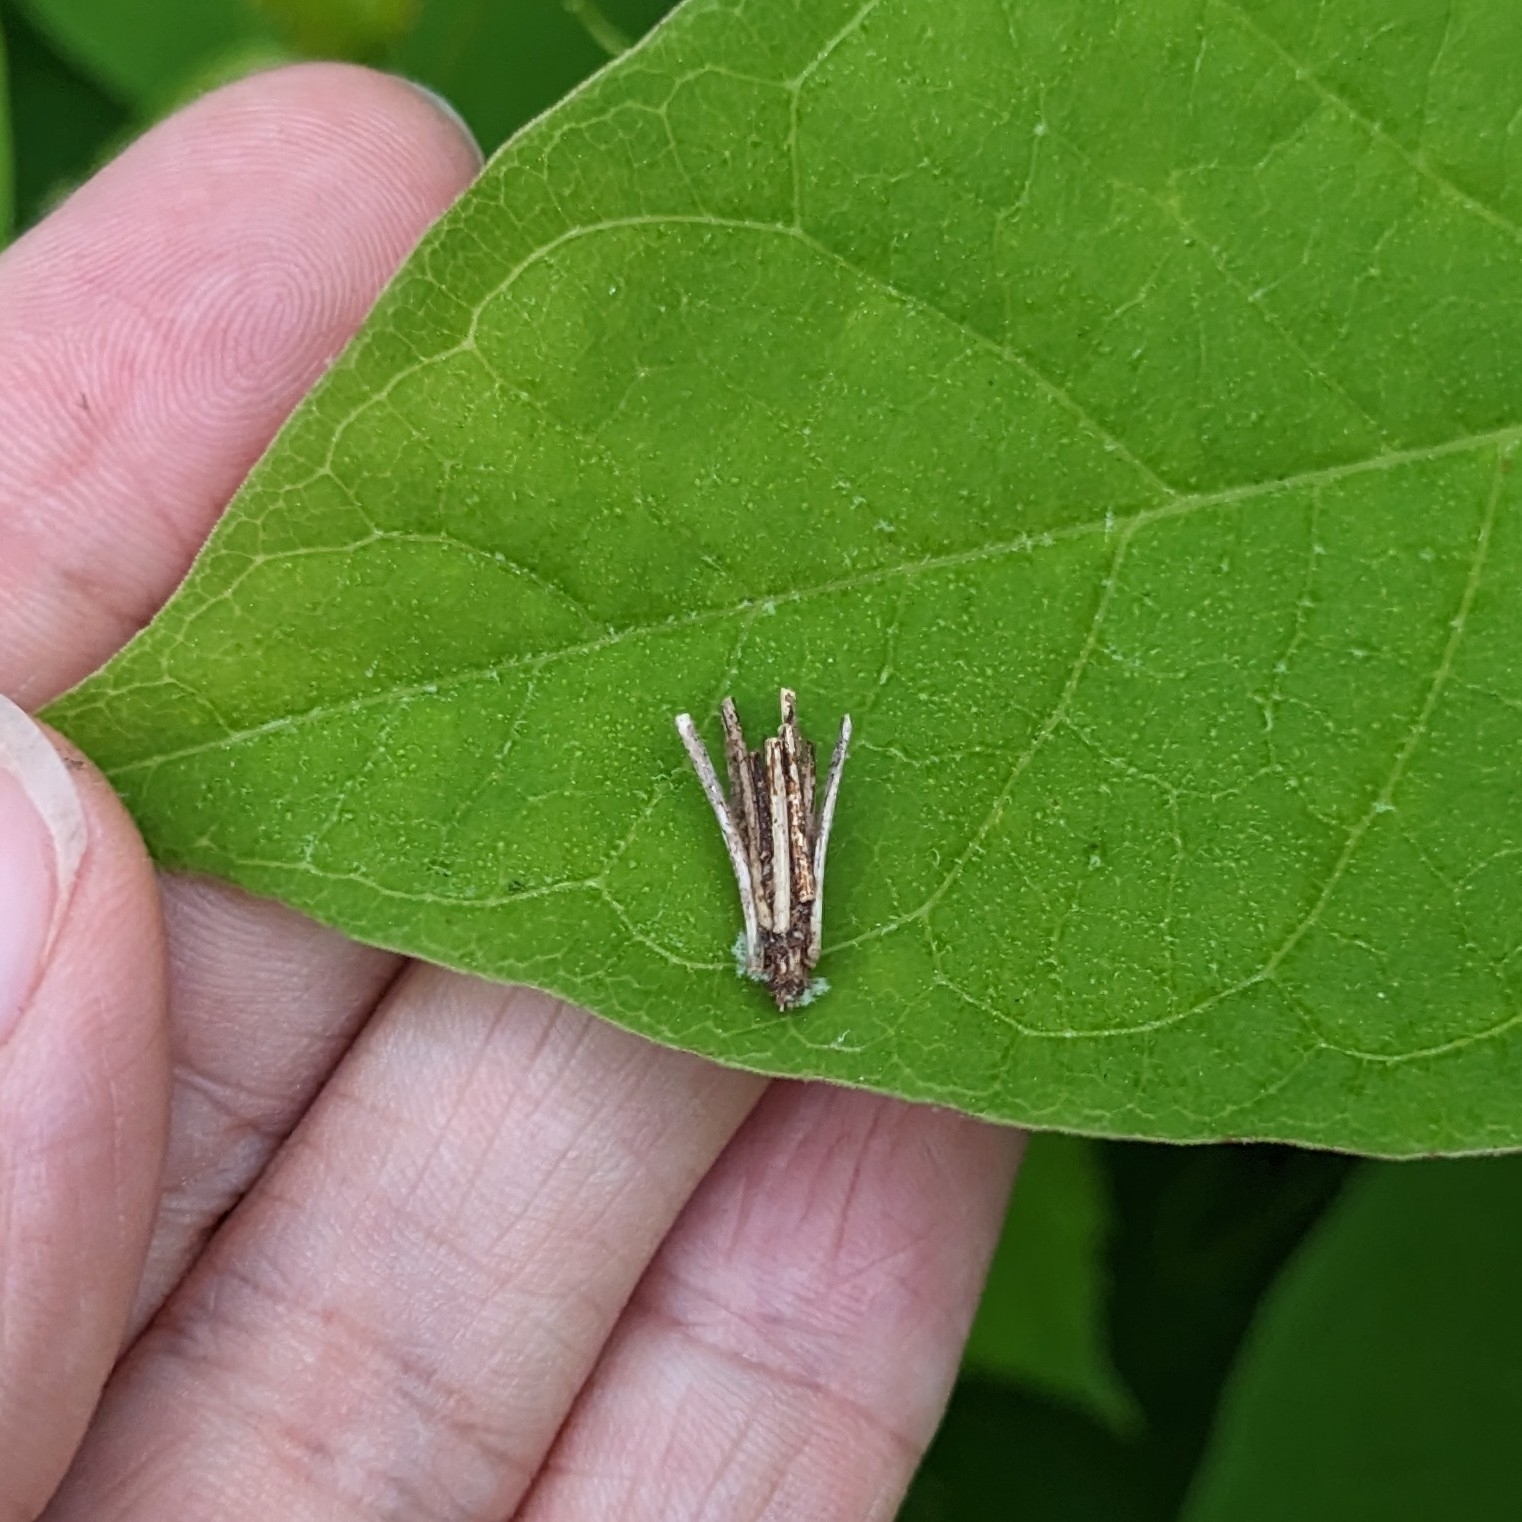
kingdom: Animalia
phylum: Arthropoda
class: Insecta
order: Lepidoptera
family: Psychidae
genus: Psyche
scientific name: Psyche casta
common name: Common sweep
